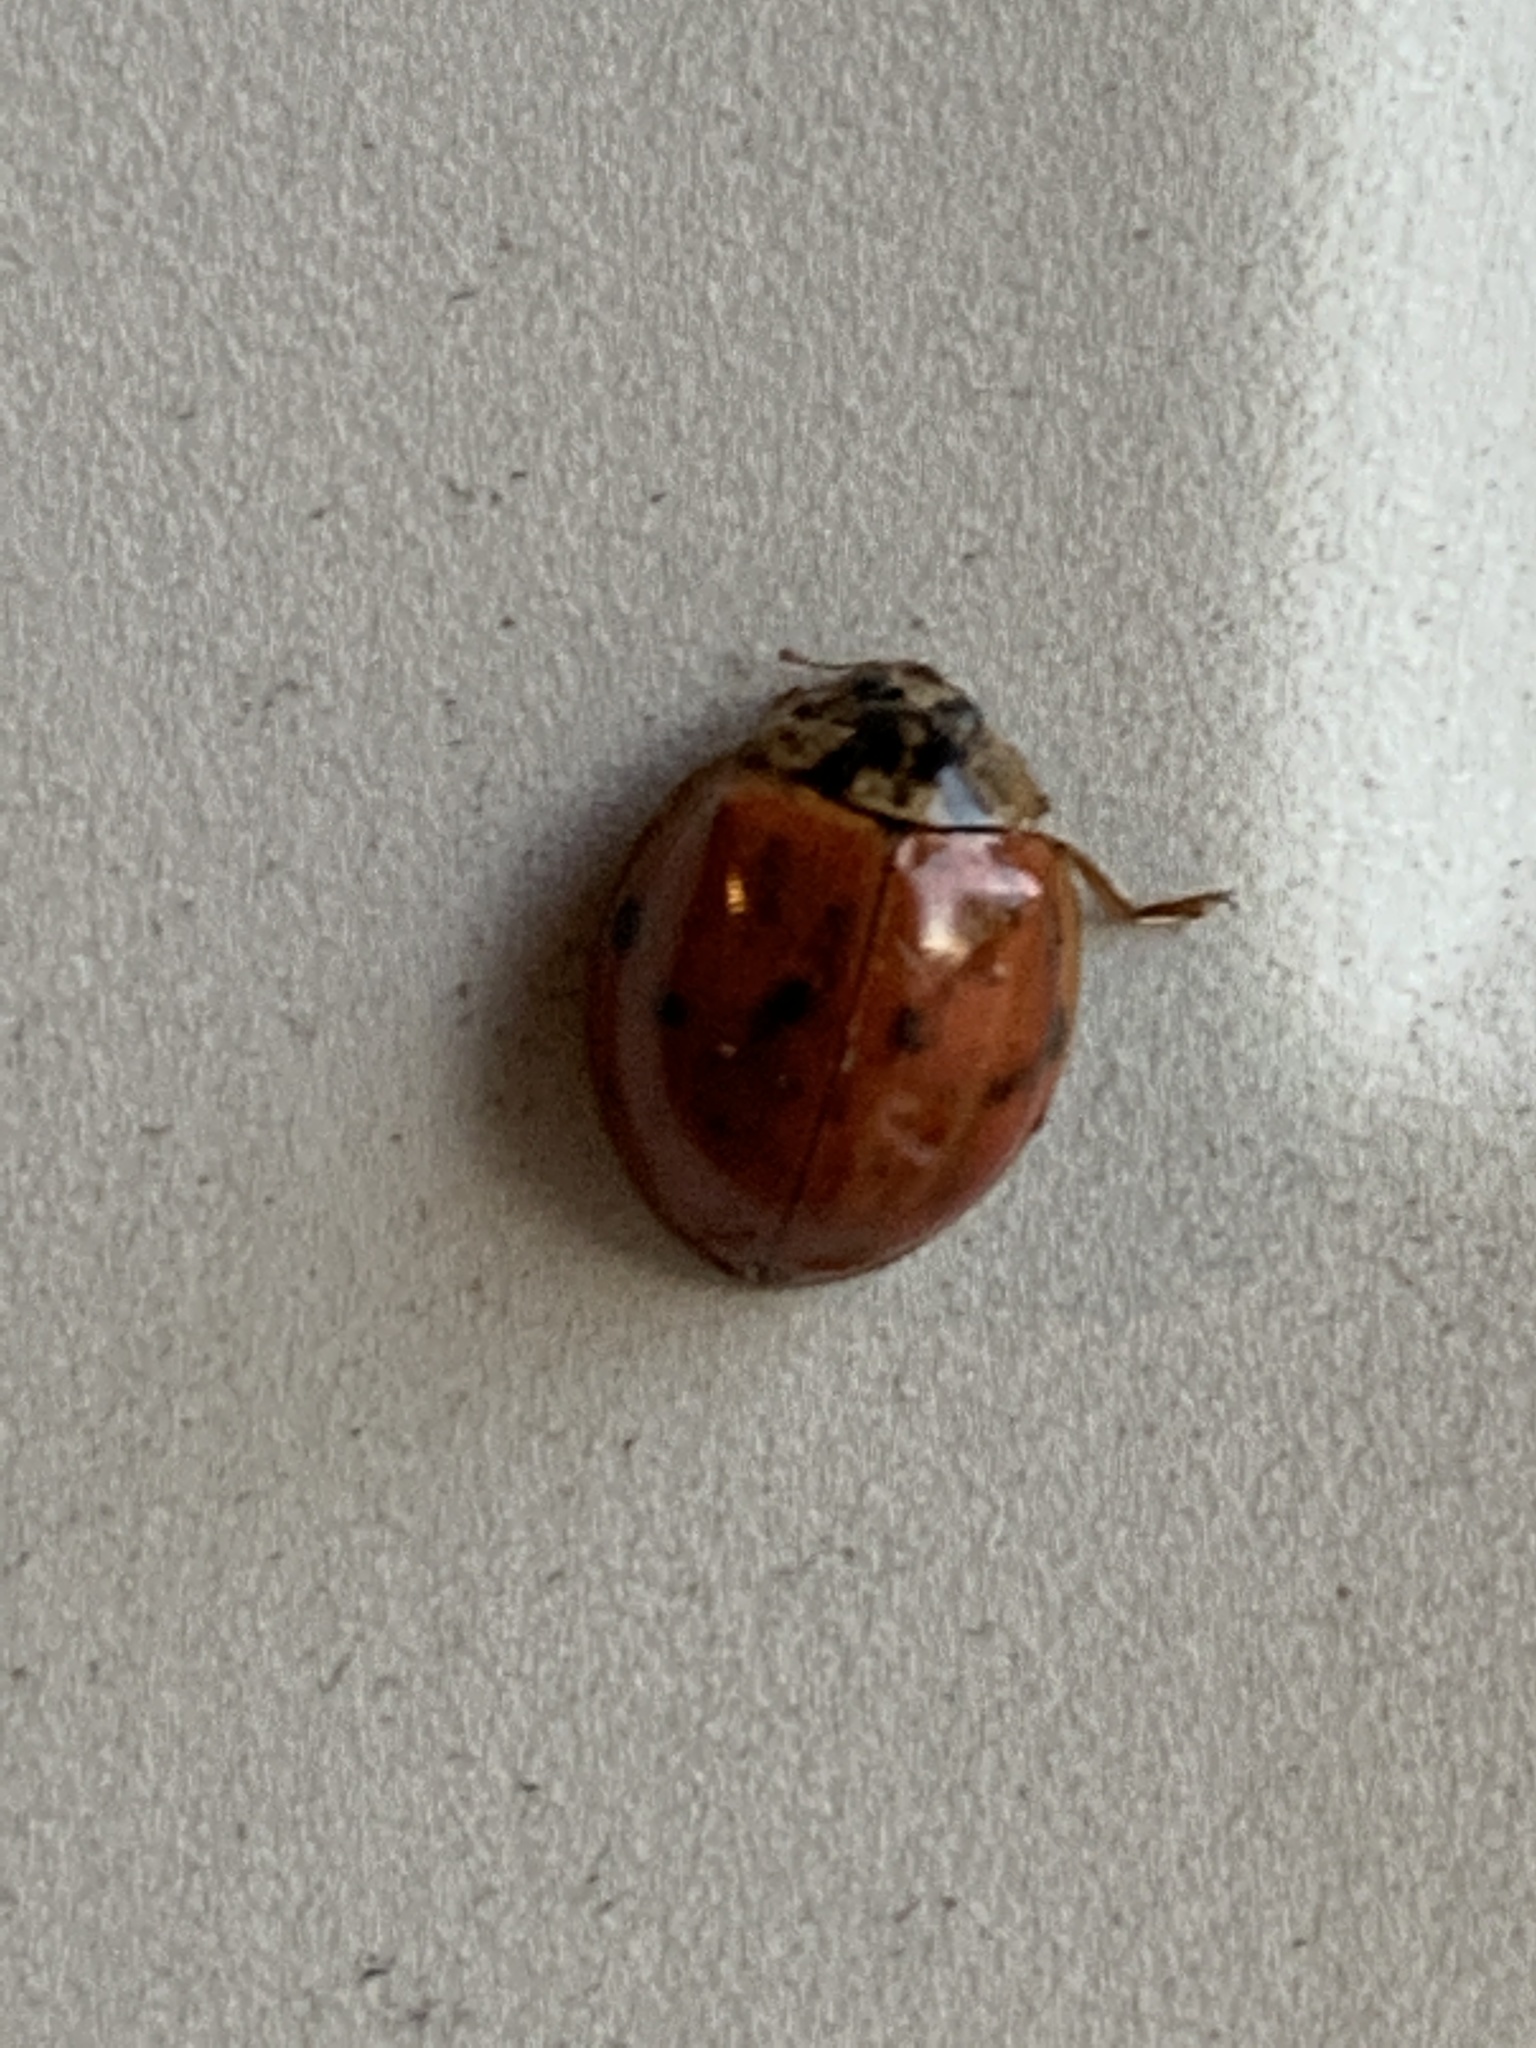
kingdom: Animalia
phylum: Arthropoda
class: Insecta
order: Coleoptera
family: Coccinellidae
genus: Harmonia
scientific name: Harmonia axyridis
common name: Harlequin ladybird
